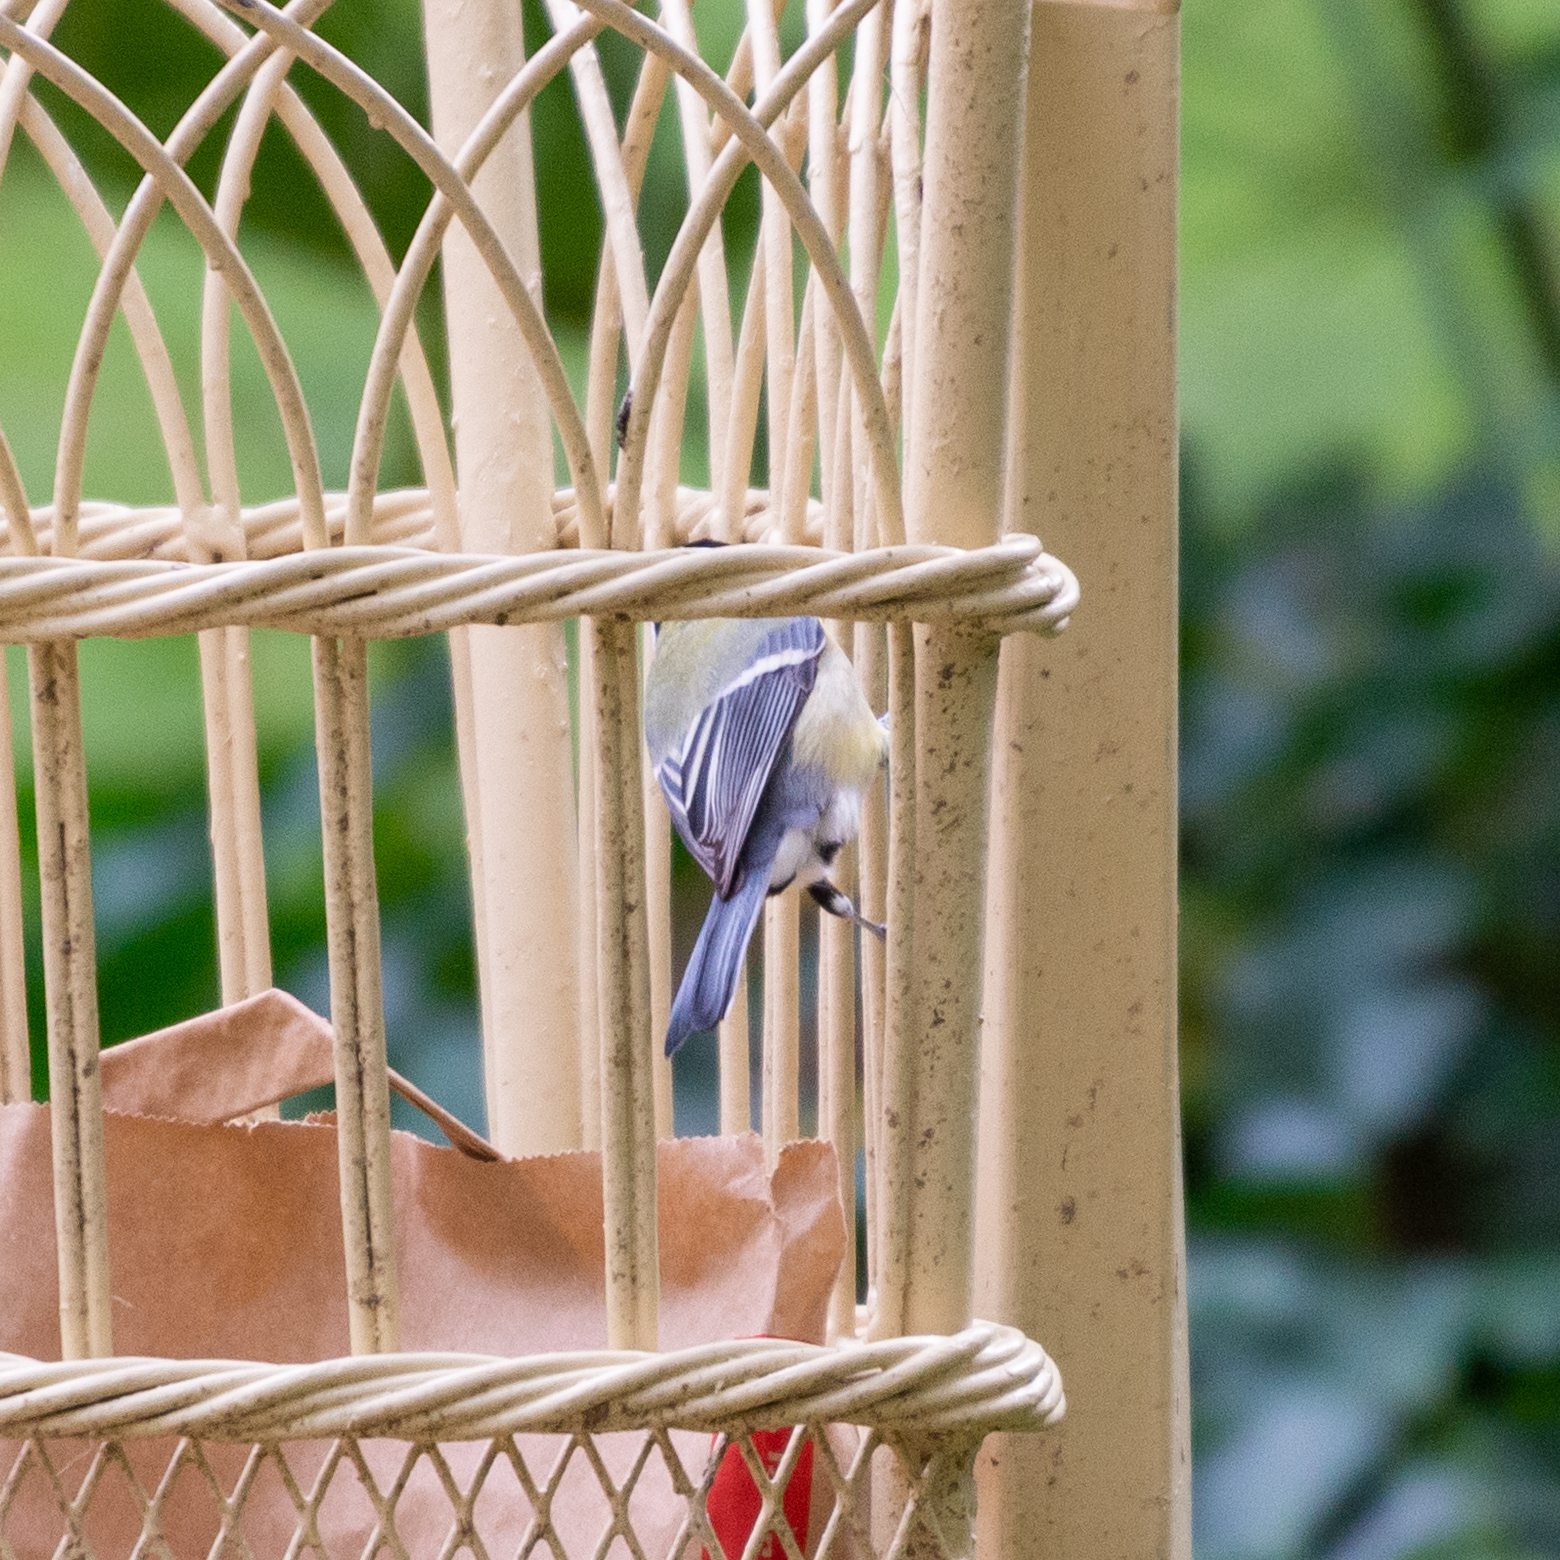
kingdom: Animalia
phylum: Chordata
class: Aves
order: Passeriformes
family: Paridae
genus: Parus
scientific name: Parus major
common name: Great tit
